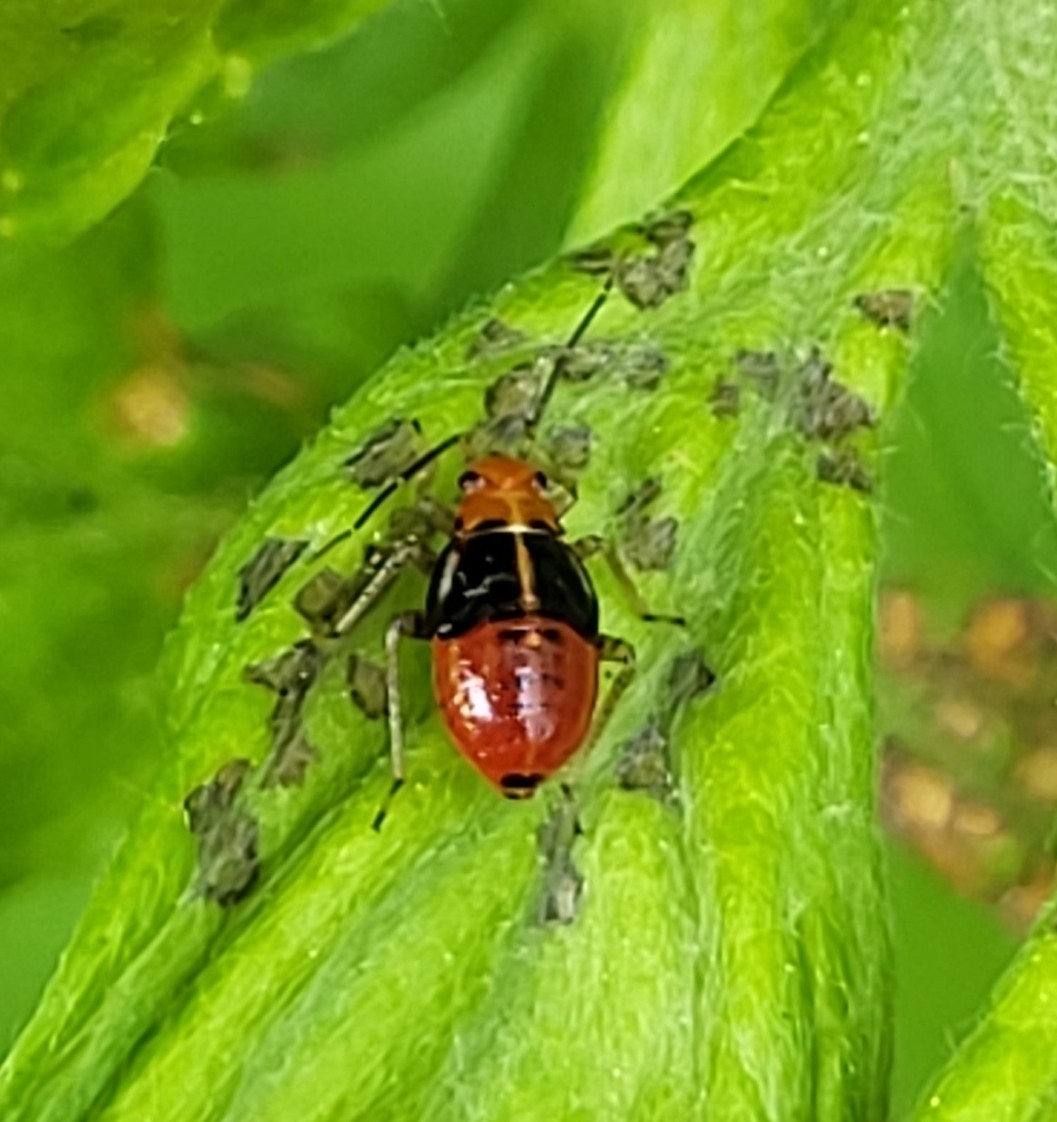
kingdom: Animalia
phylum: Arthropoda
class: Insecta
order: Hemiptera
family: Miridae
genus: Poecilocapsus
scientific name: Poecilocapsus lineatus
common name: Four-lined plant bug
